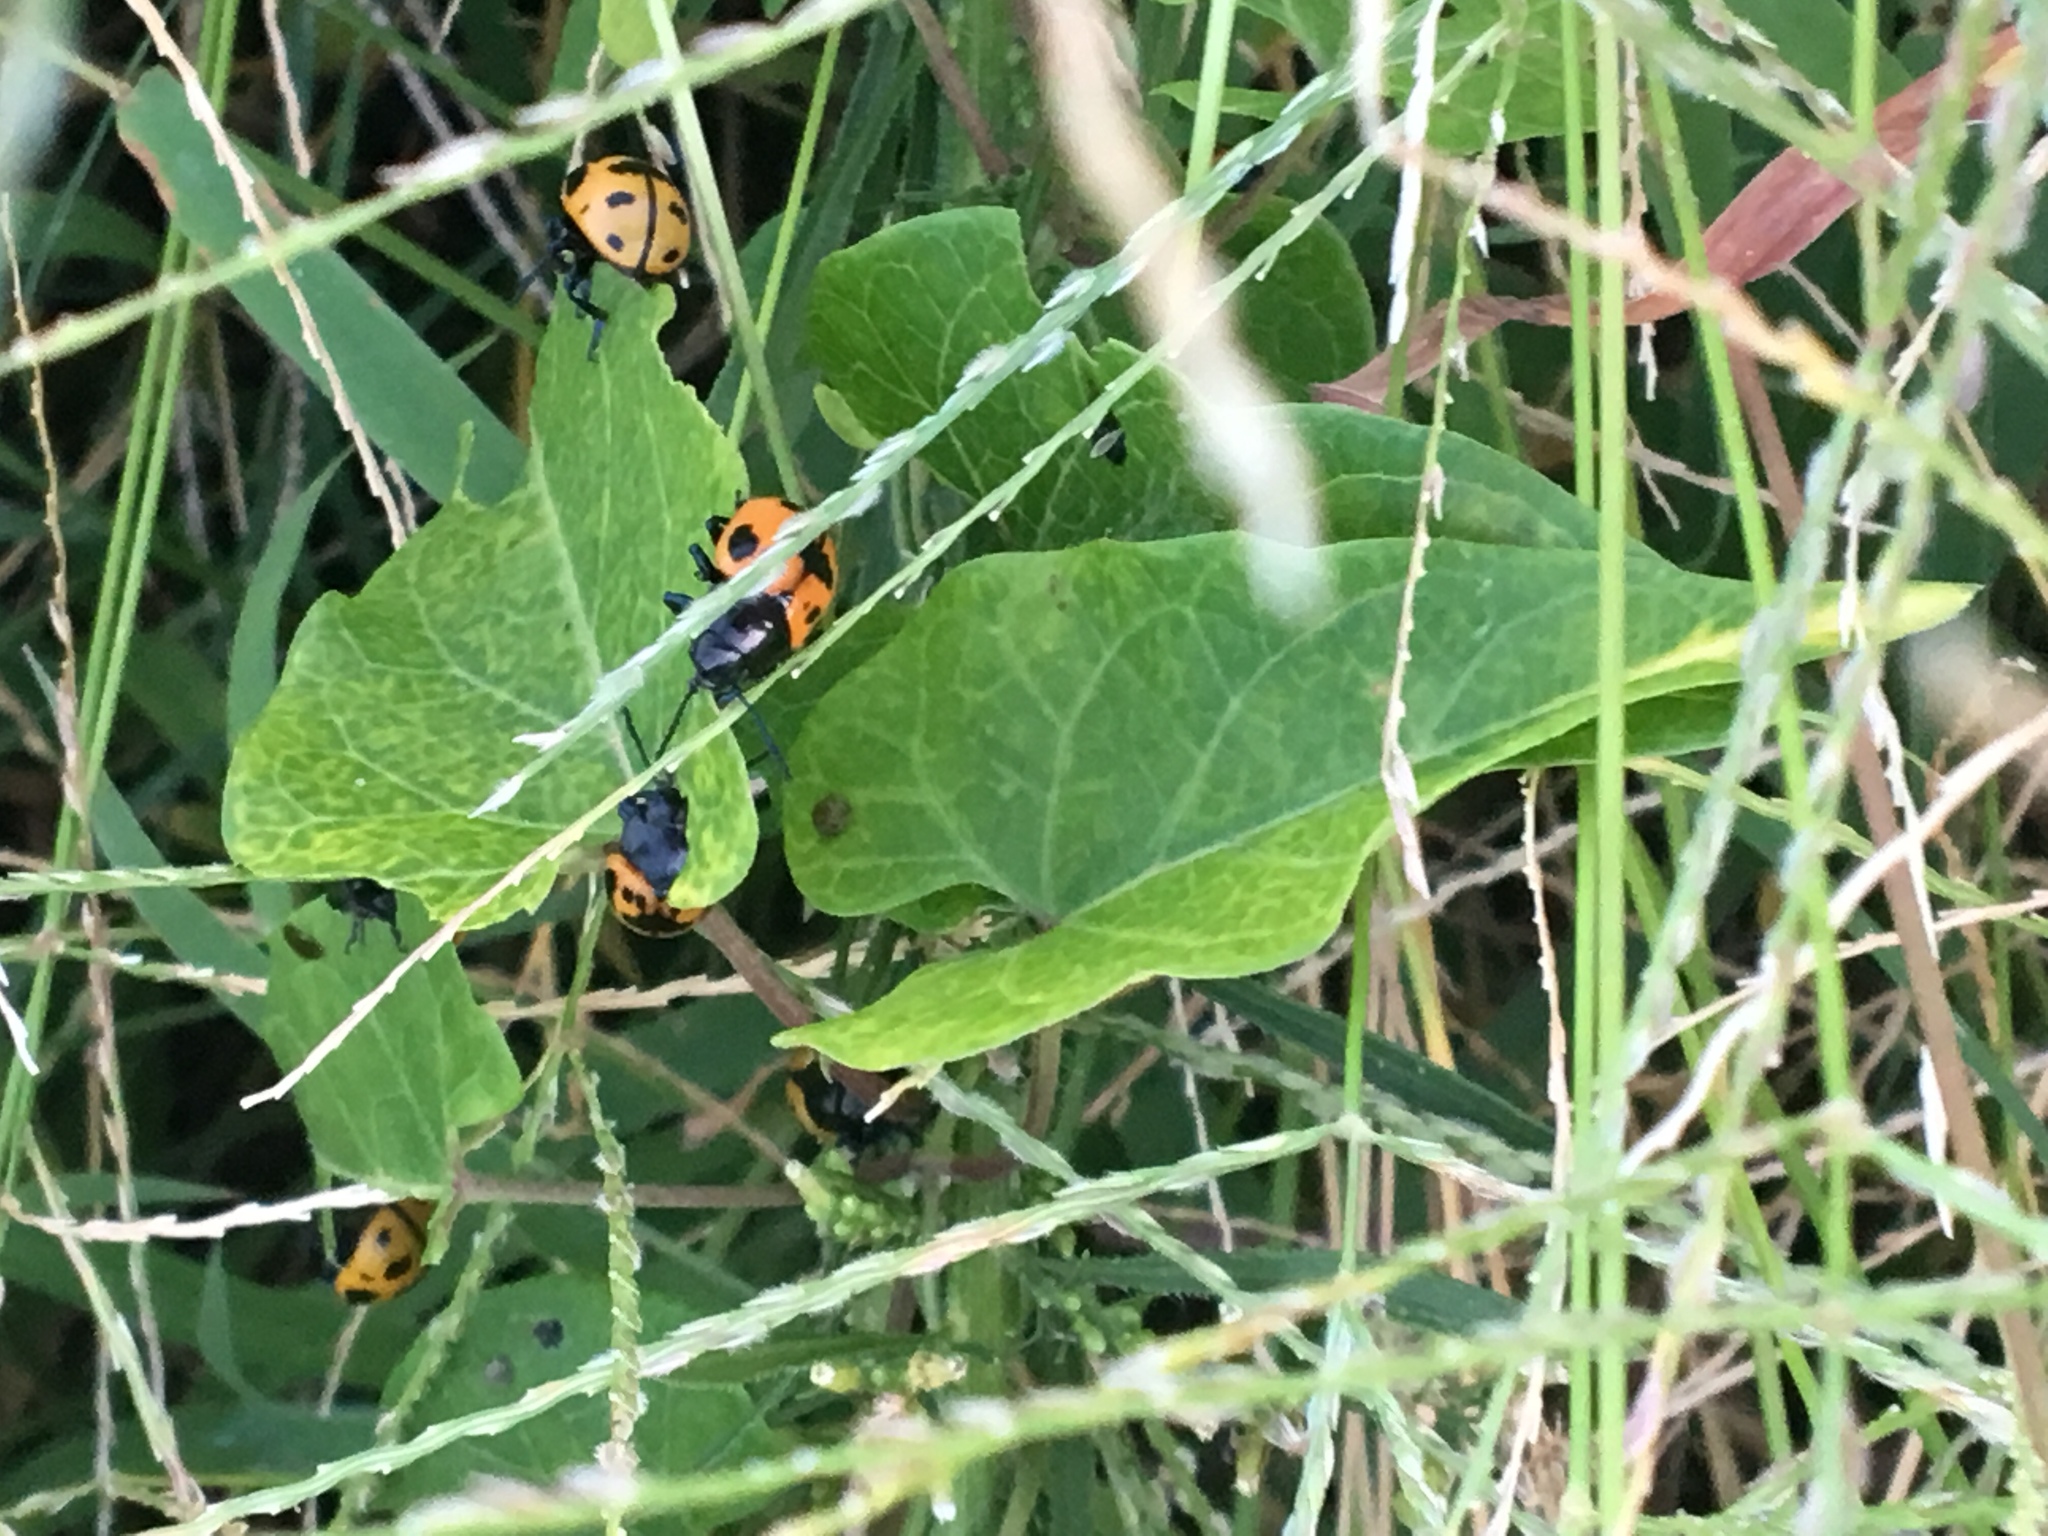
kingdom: Plantae
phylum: Tracheophyta
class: Magnoliopsida
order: Gentianales
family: Apocynaceae
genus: Cynanchum
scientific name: Cynanchum laeve
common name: Sandvine
